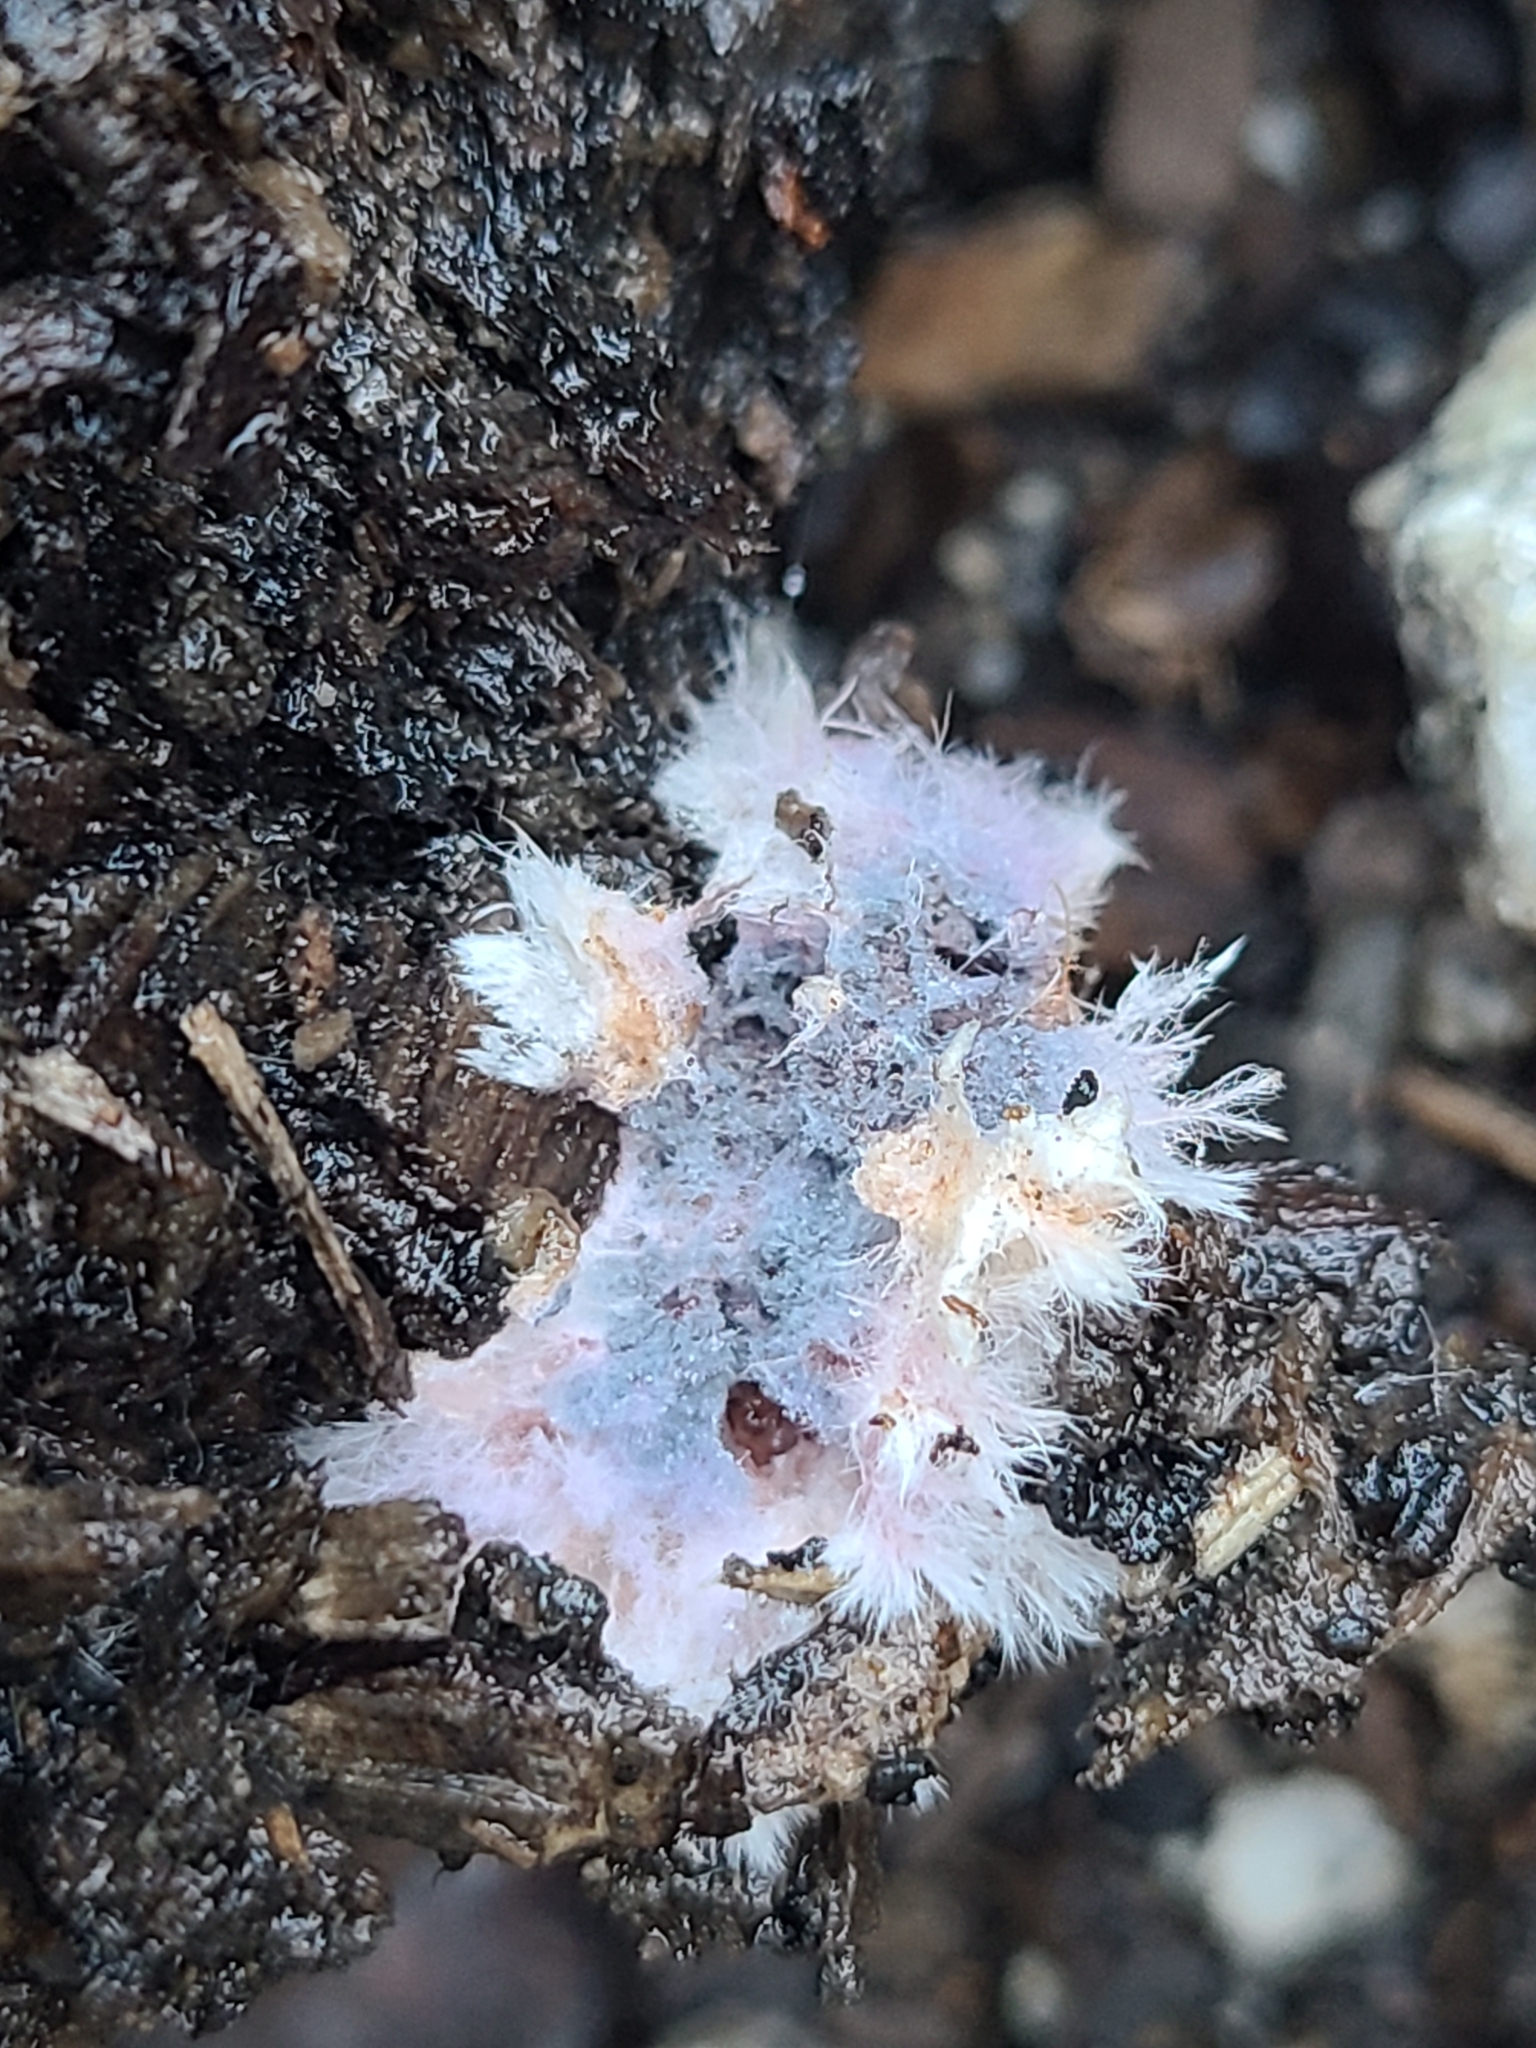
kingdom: Fungi
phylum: Basidiomycota
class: Agaricomycetes
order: Corticiales
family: Punctulariaceae
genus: Punctularia
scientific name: Punctularia atropurpurascens
